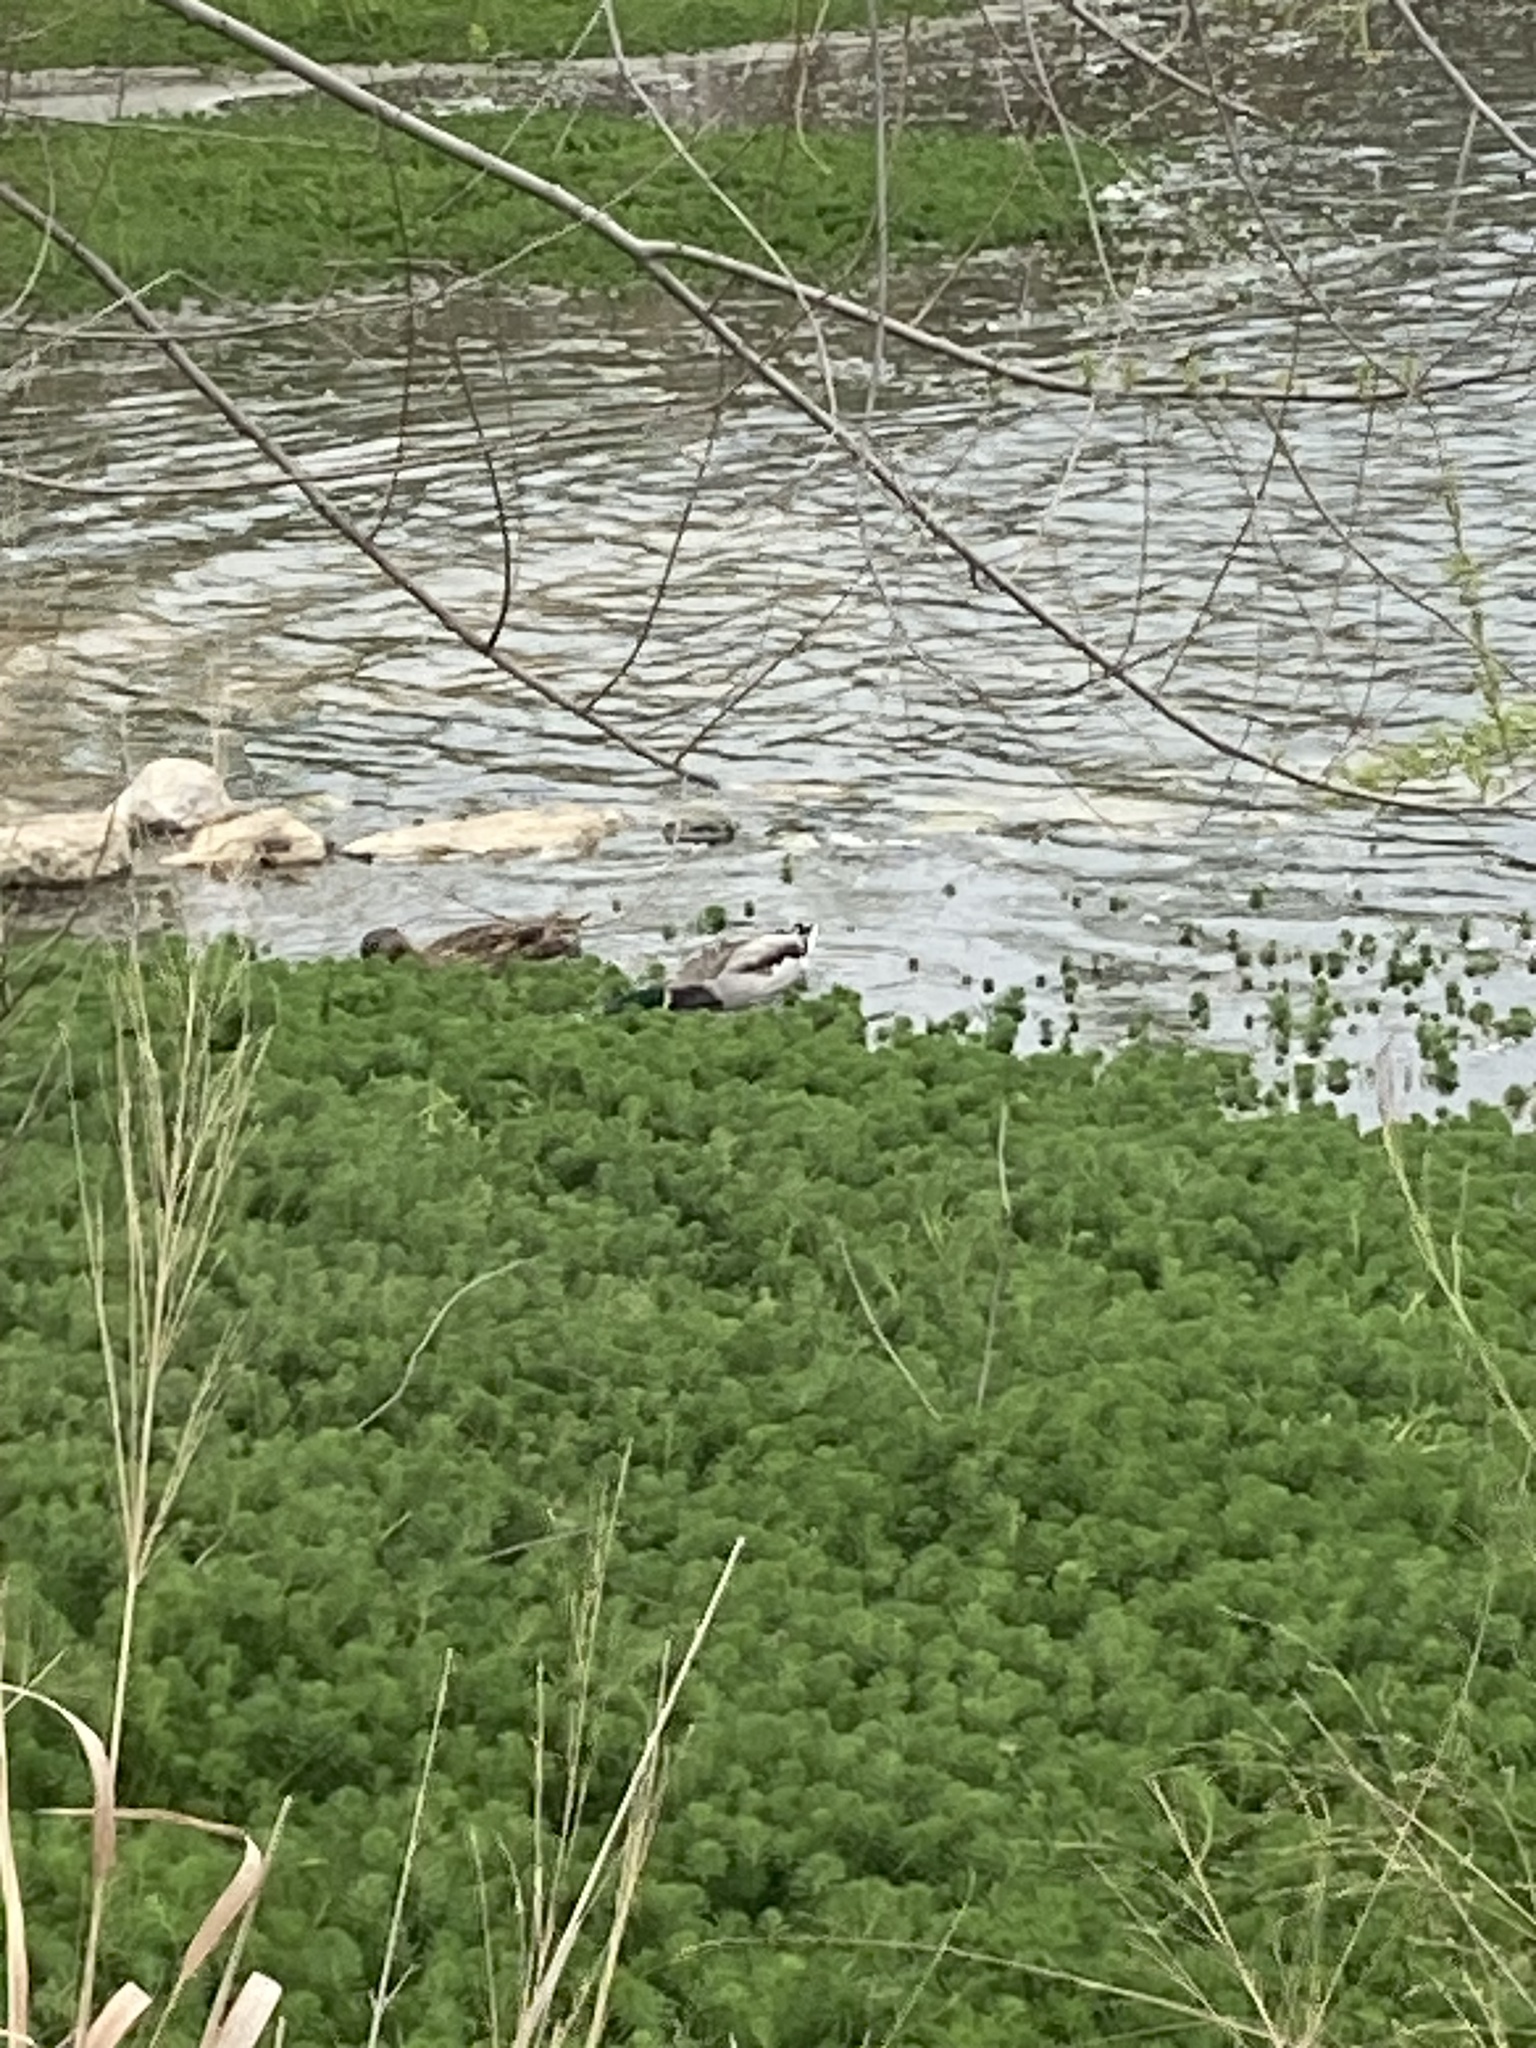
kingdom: Animalia
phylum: Chordata
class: Aves
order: Anseriformes
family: Anatidae
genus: Anas
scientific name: Anas platyrhynchos
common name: Mallard
